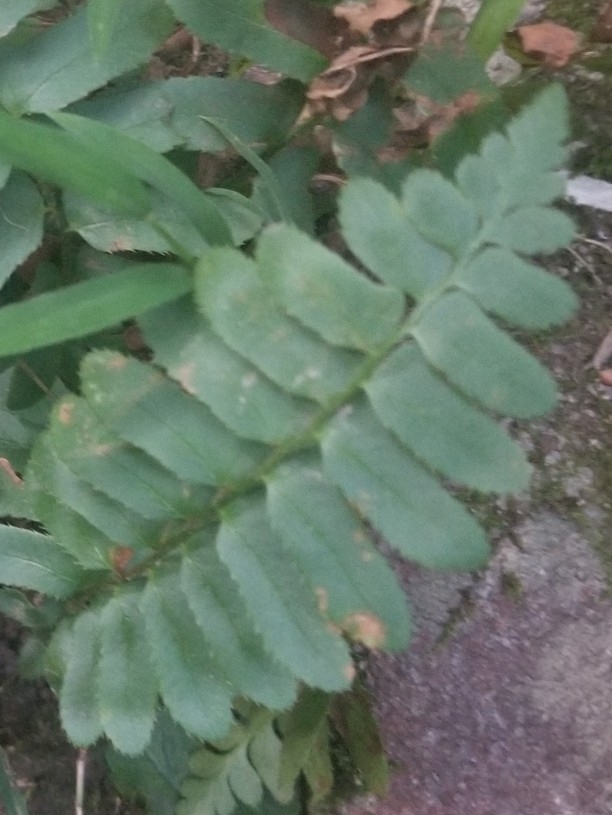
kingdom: Plantae
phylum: Tracheophyta
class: Polypodiopsida
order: Polypodiales
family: Dryopteridaceae
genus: Polystichum
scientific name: Polystichum acrostichoides
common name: Christmas fern
